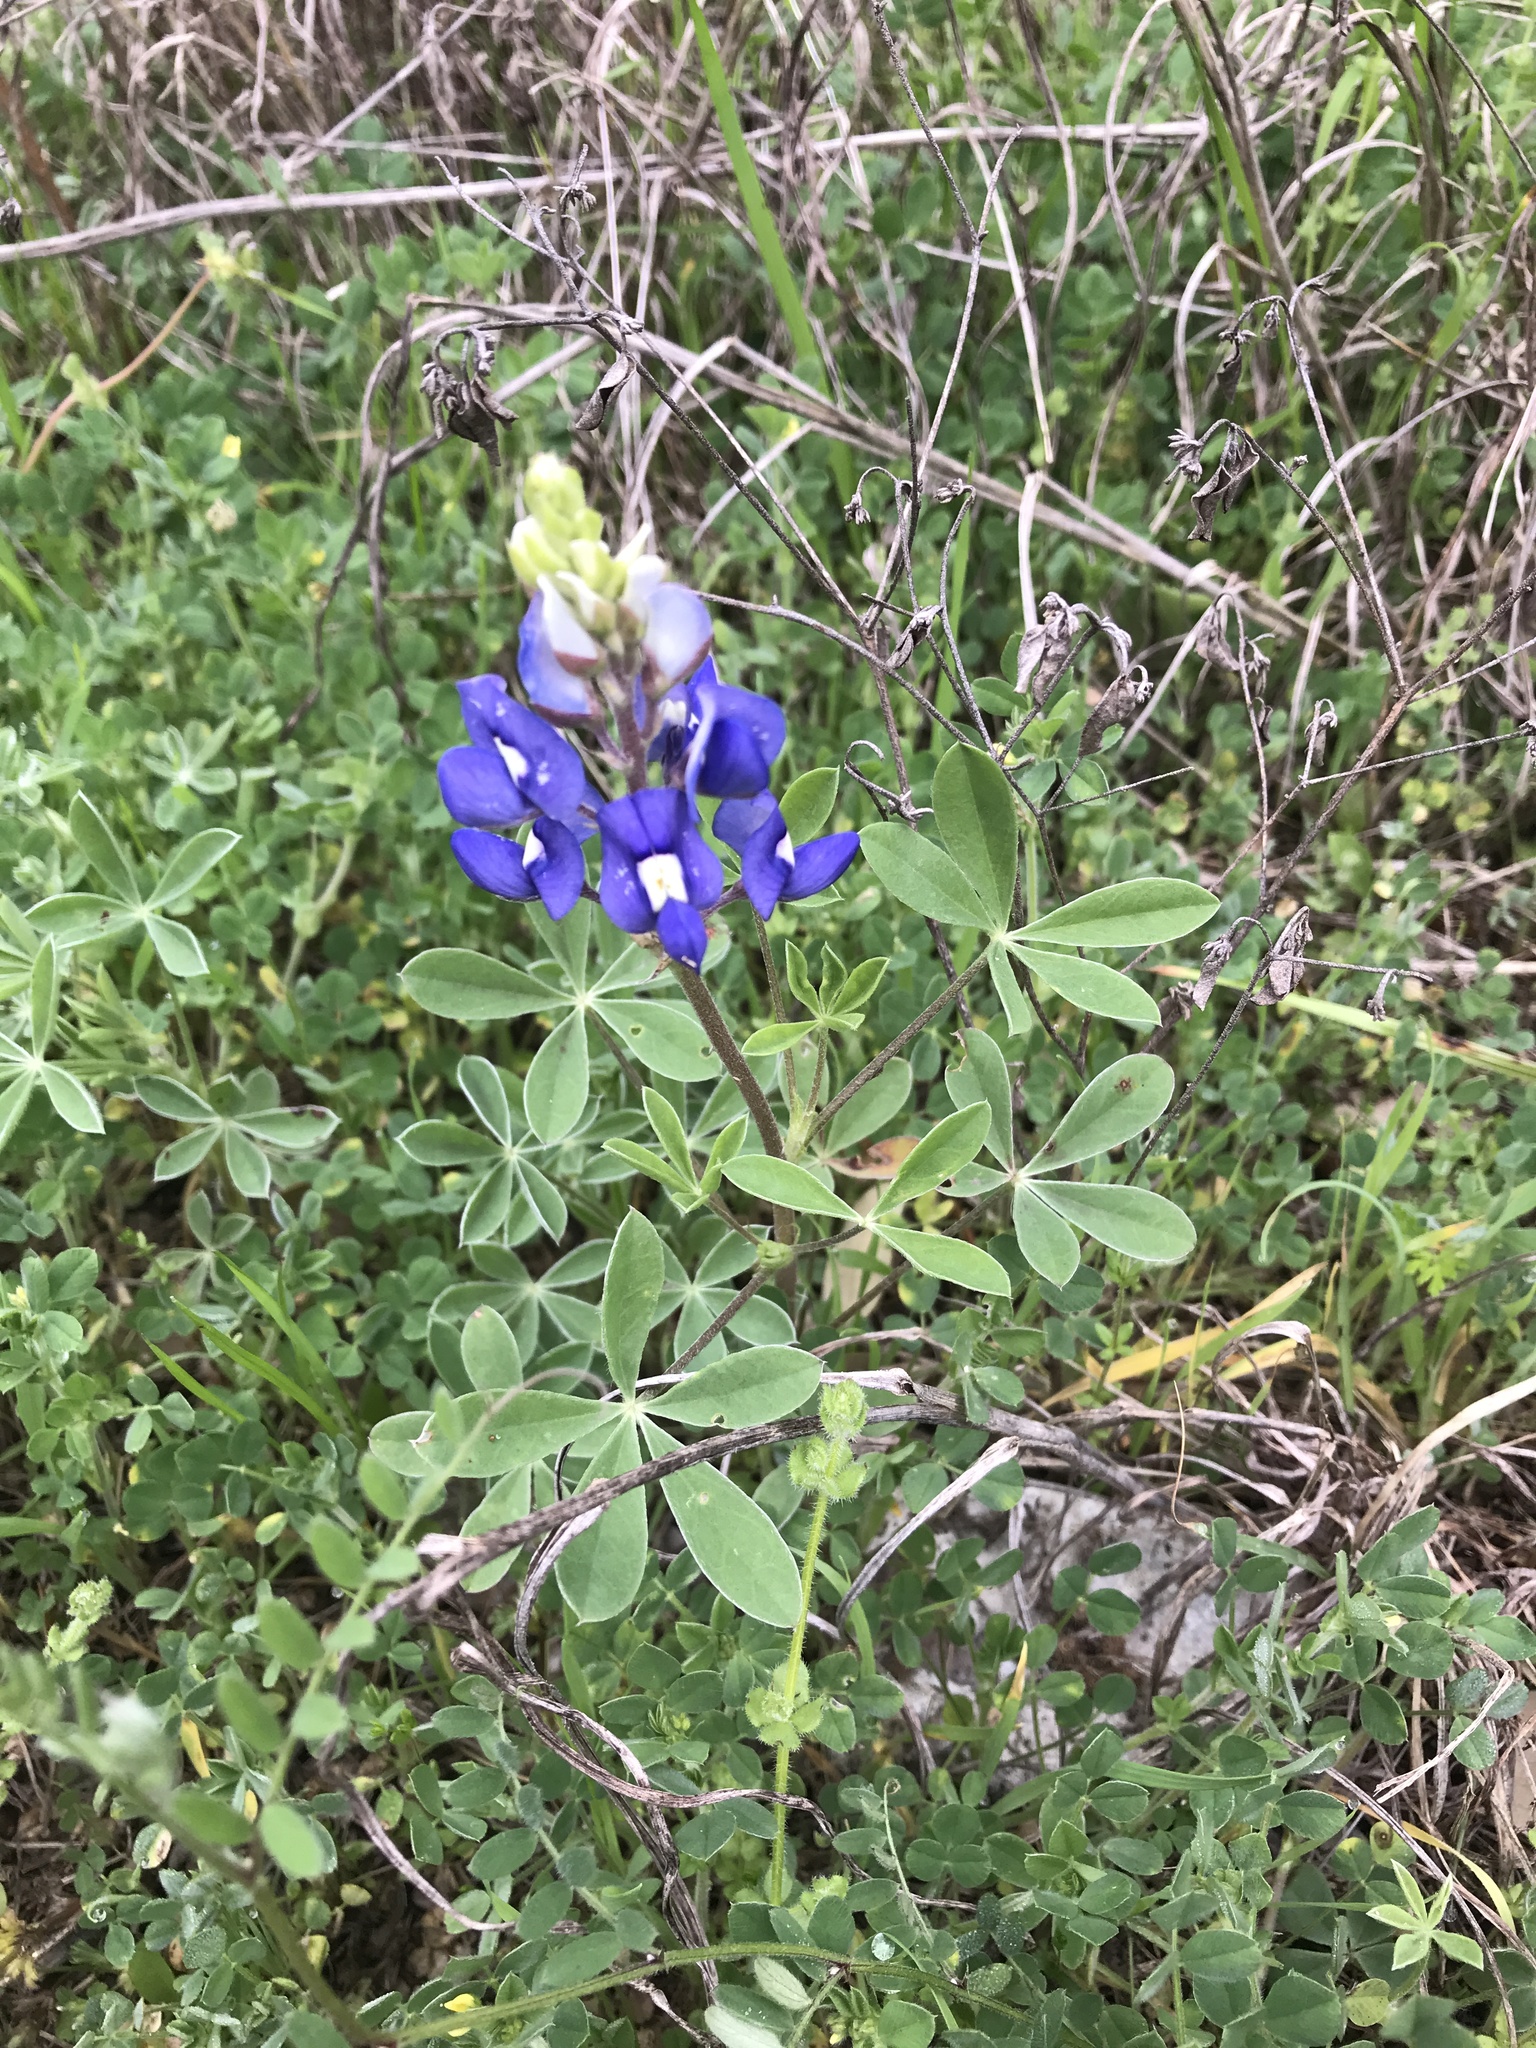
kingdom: Plantae
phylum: Tracheophyta
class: Magnoliopsida
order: Fabales
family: Fabaceae
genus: Lupinus
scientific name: Lupinus texensis
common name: Texas bluebonnet
